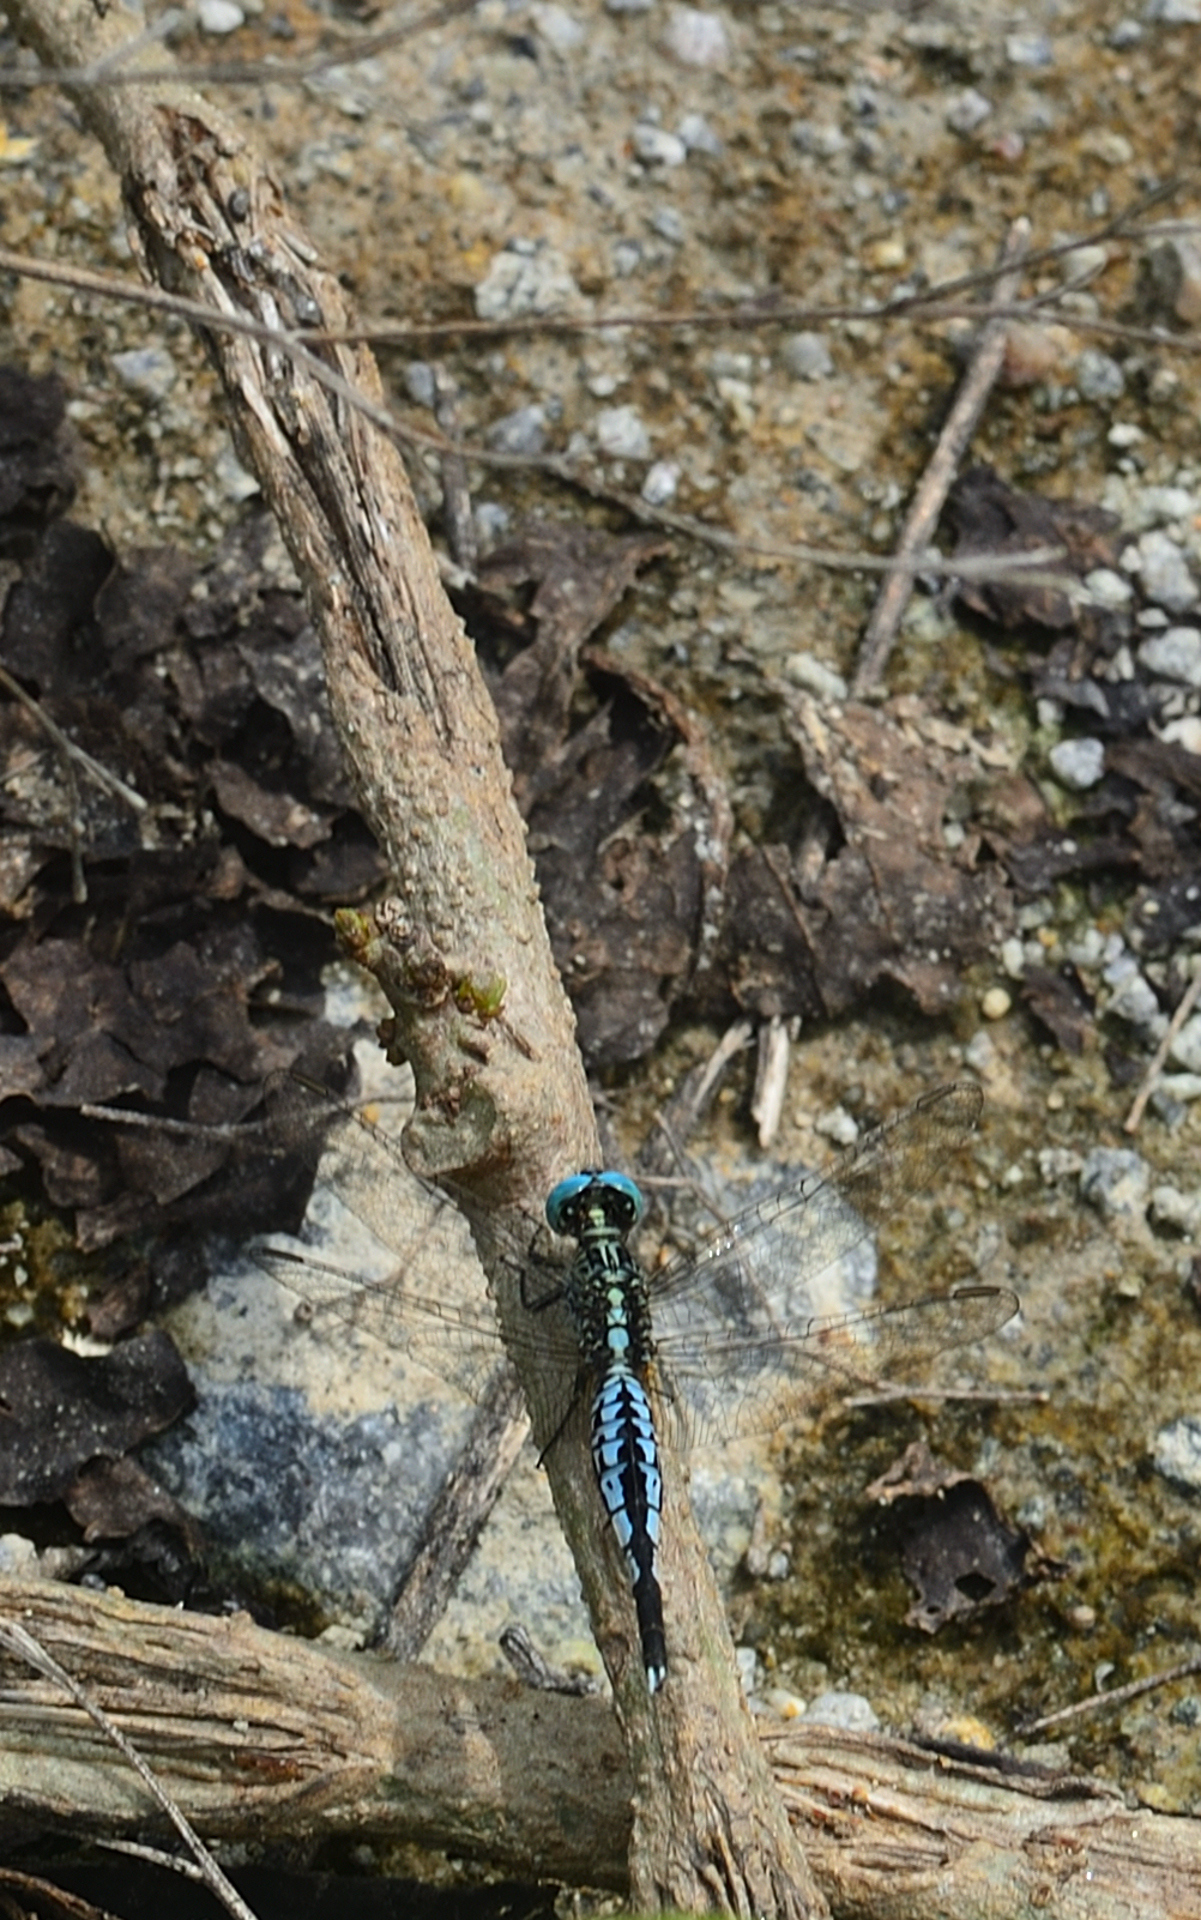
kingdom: Animalia
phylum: Arthropoda
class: Insecta
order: Odonata
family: Libellulidae
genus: Acisoma
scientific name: Acisoma panorpoides
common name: Asian pintail
